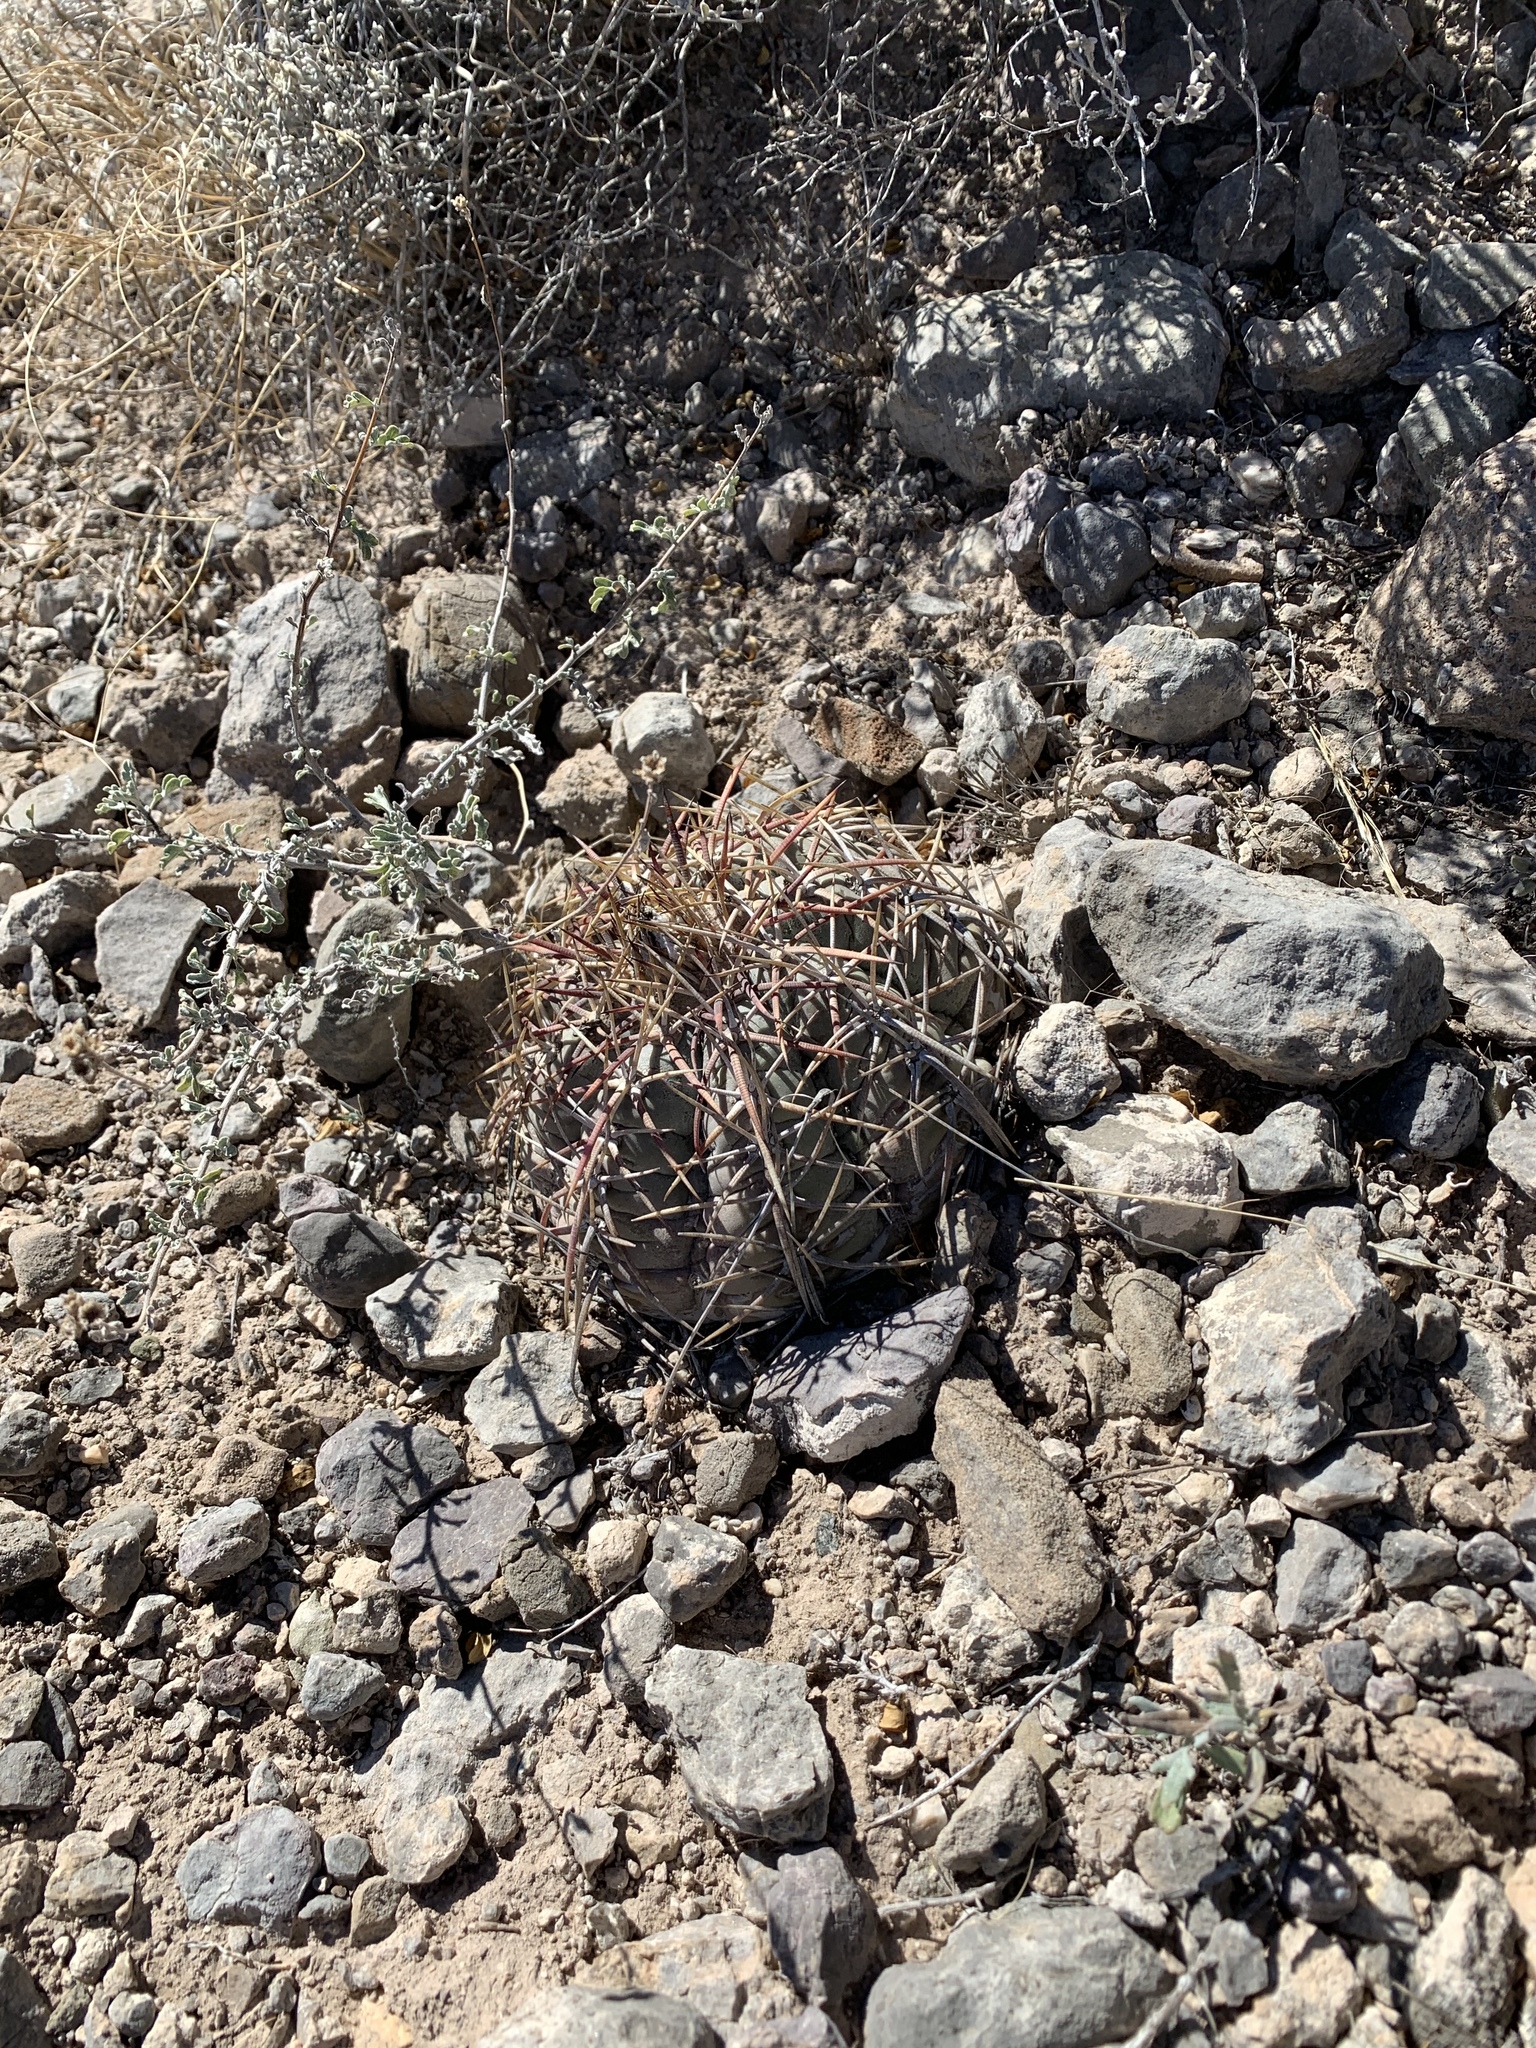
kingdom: Plantae
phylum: Tracheophyta
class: Magnoliopsida
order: Caryophyllales
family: Cactaceae
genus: Echinocactus
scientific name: Echinocactus horizonthalonius
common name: Devilshead
